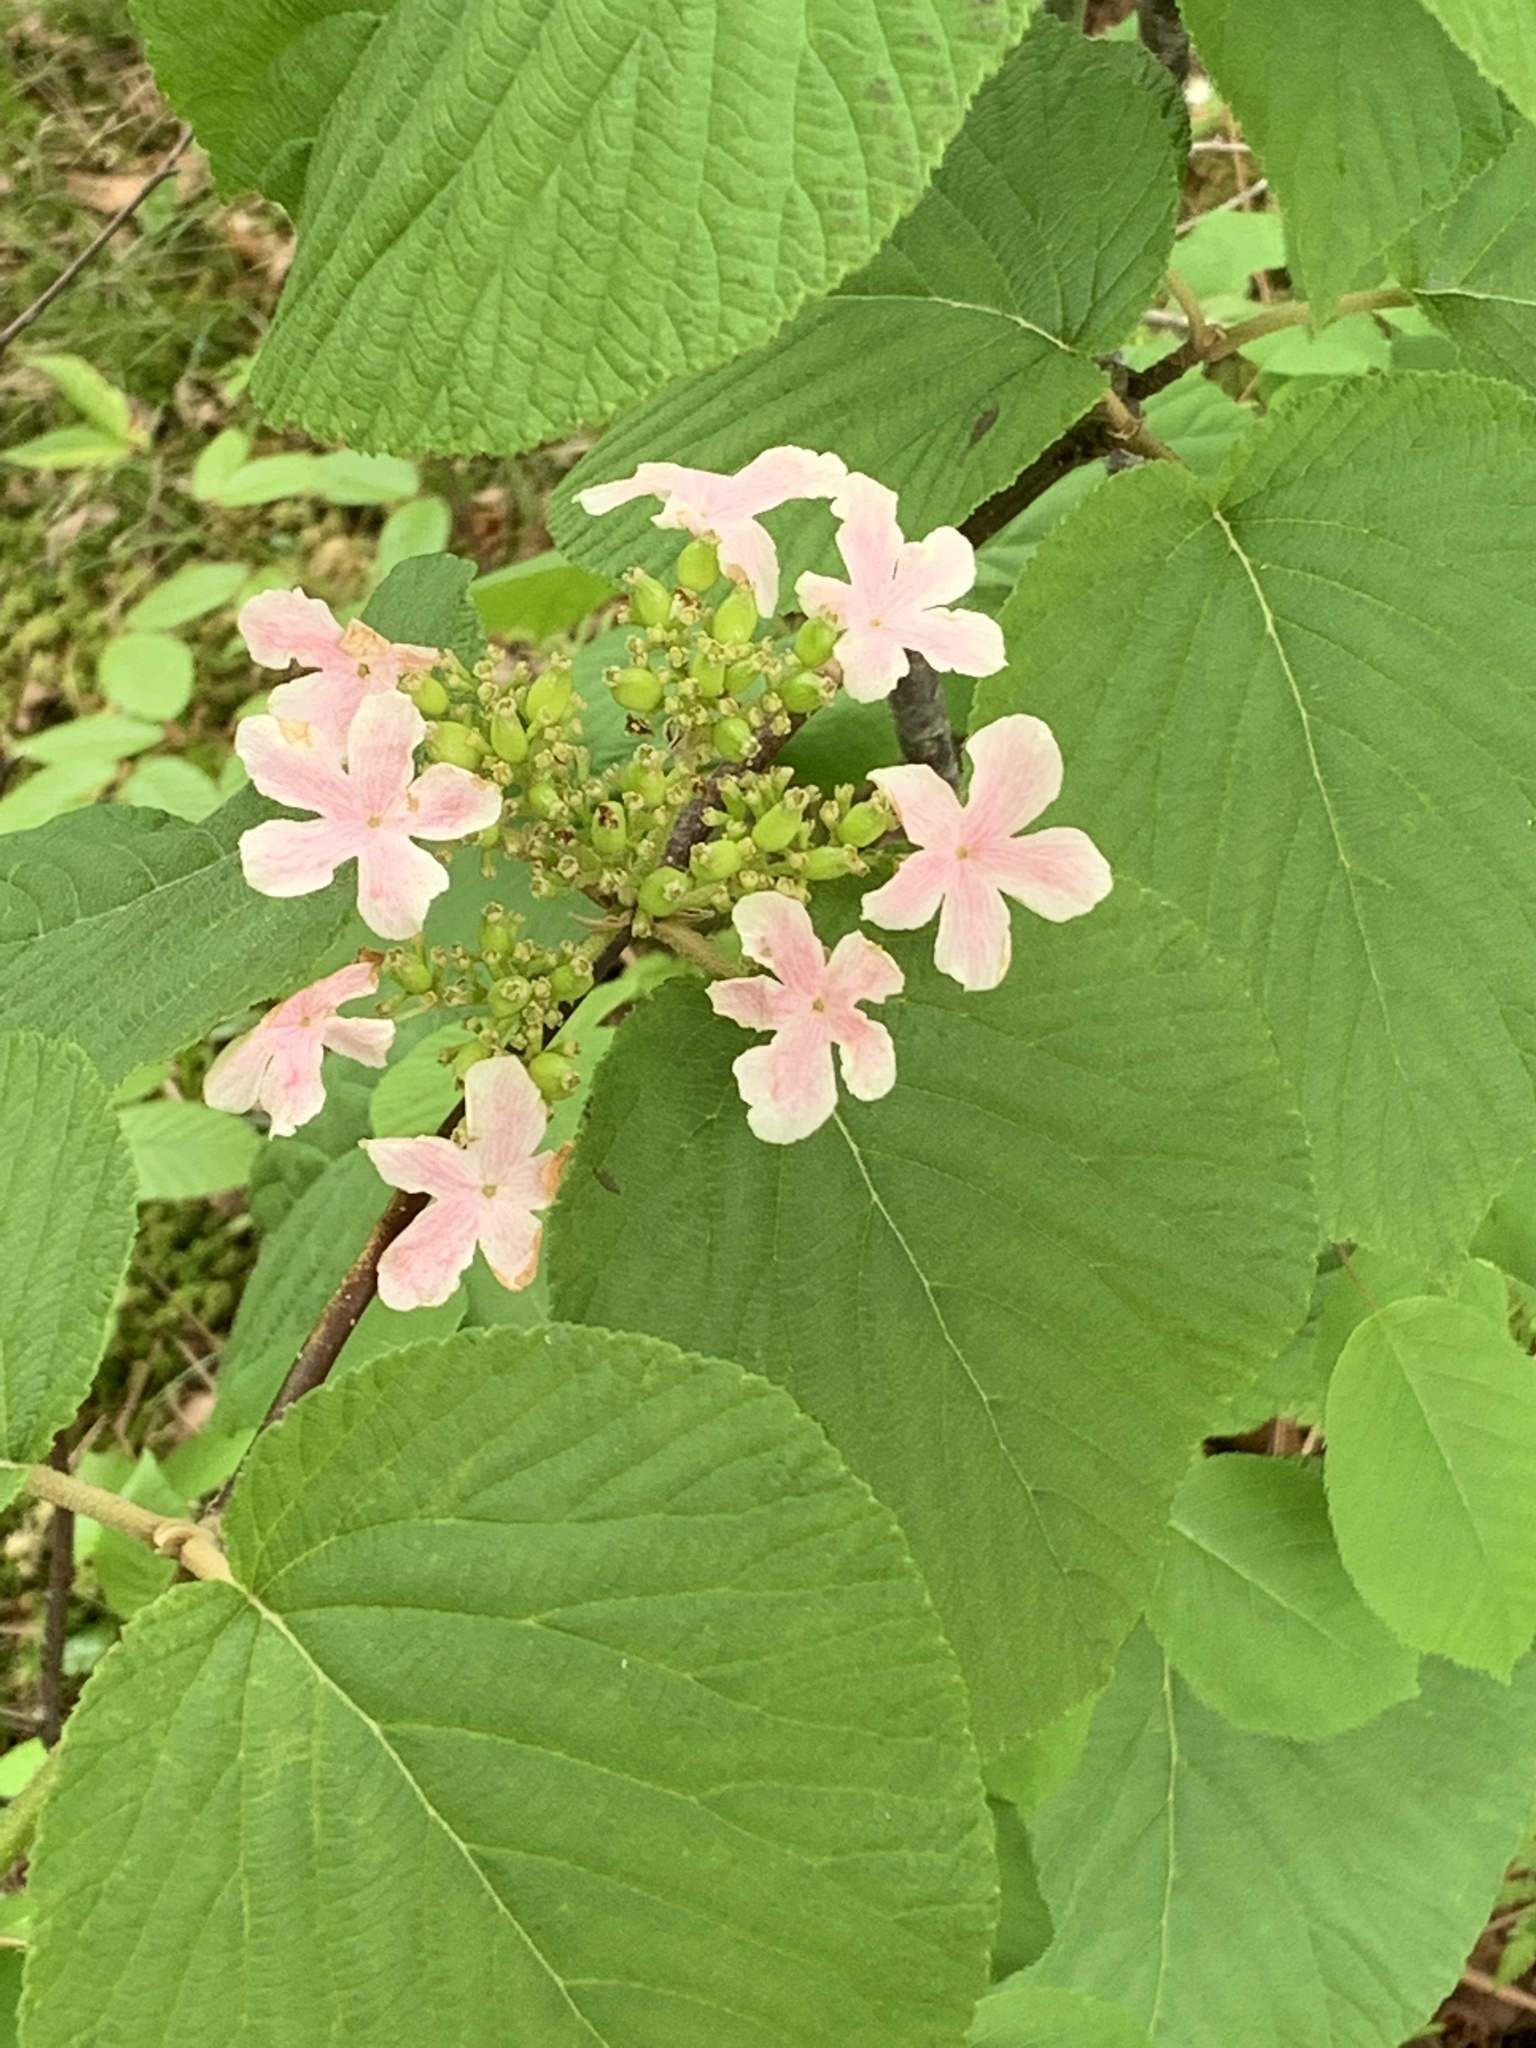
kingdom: Plantae
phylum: Tracheophyta
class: Magnoliopsida
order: Dipsacales
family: Viburnaceae
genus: Viburnum
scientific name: Viburnum lantanoides
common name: Hobblebush
